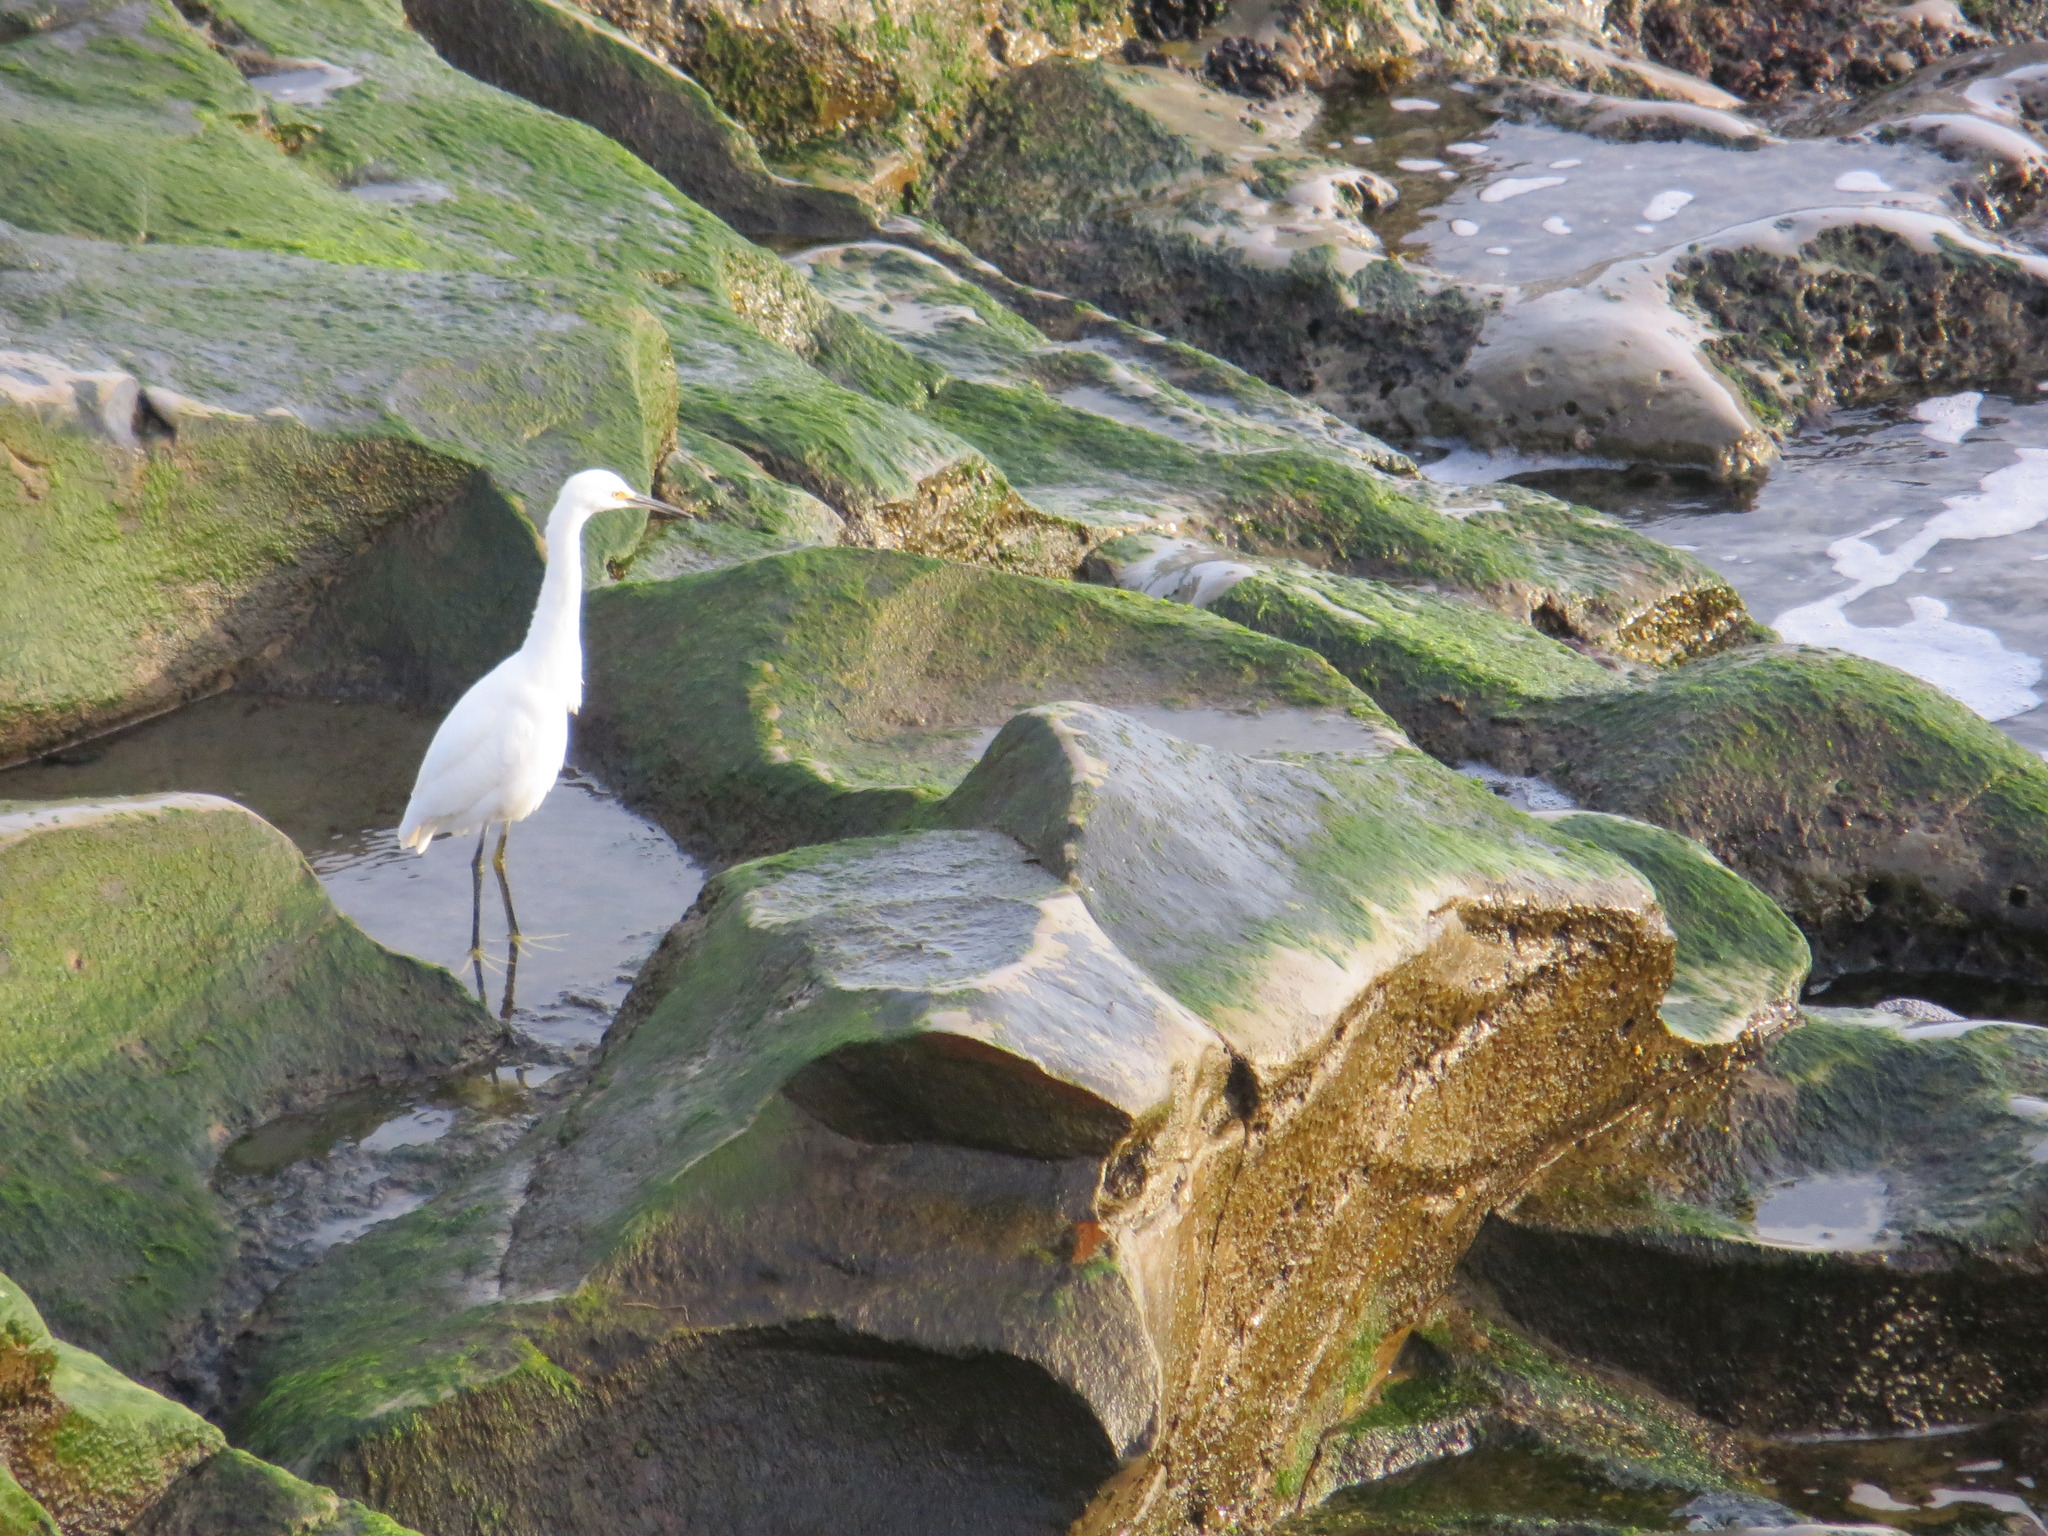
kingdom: Animalia
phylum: Chordata
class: Aves
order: Pelecaniformes
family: Ardeidae
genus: Egretta
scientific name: Egretta thula
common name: Snowy egret
